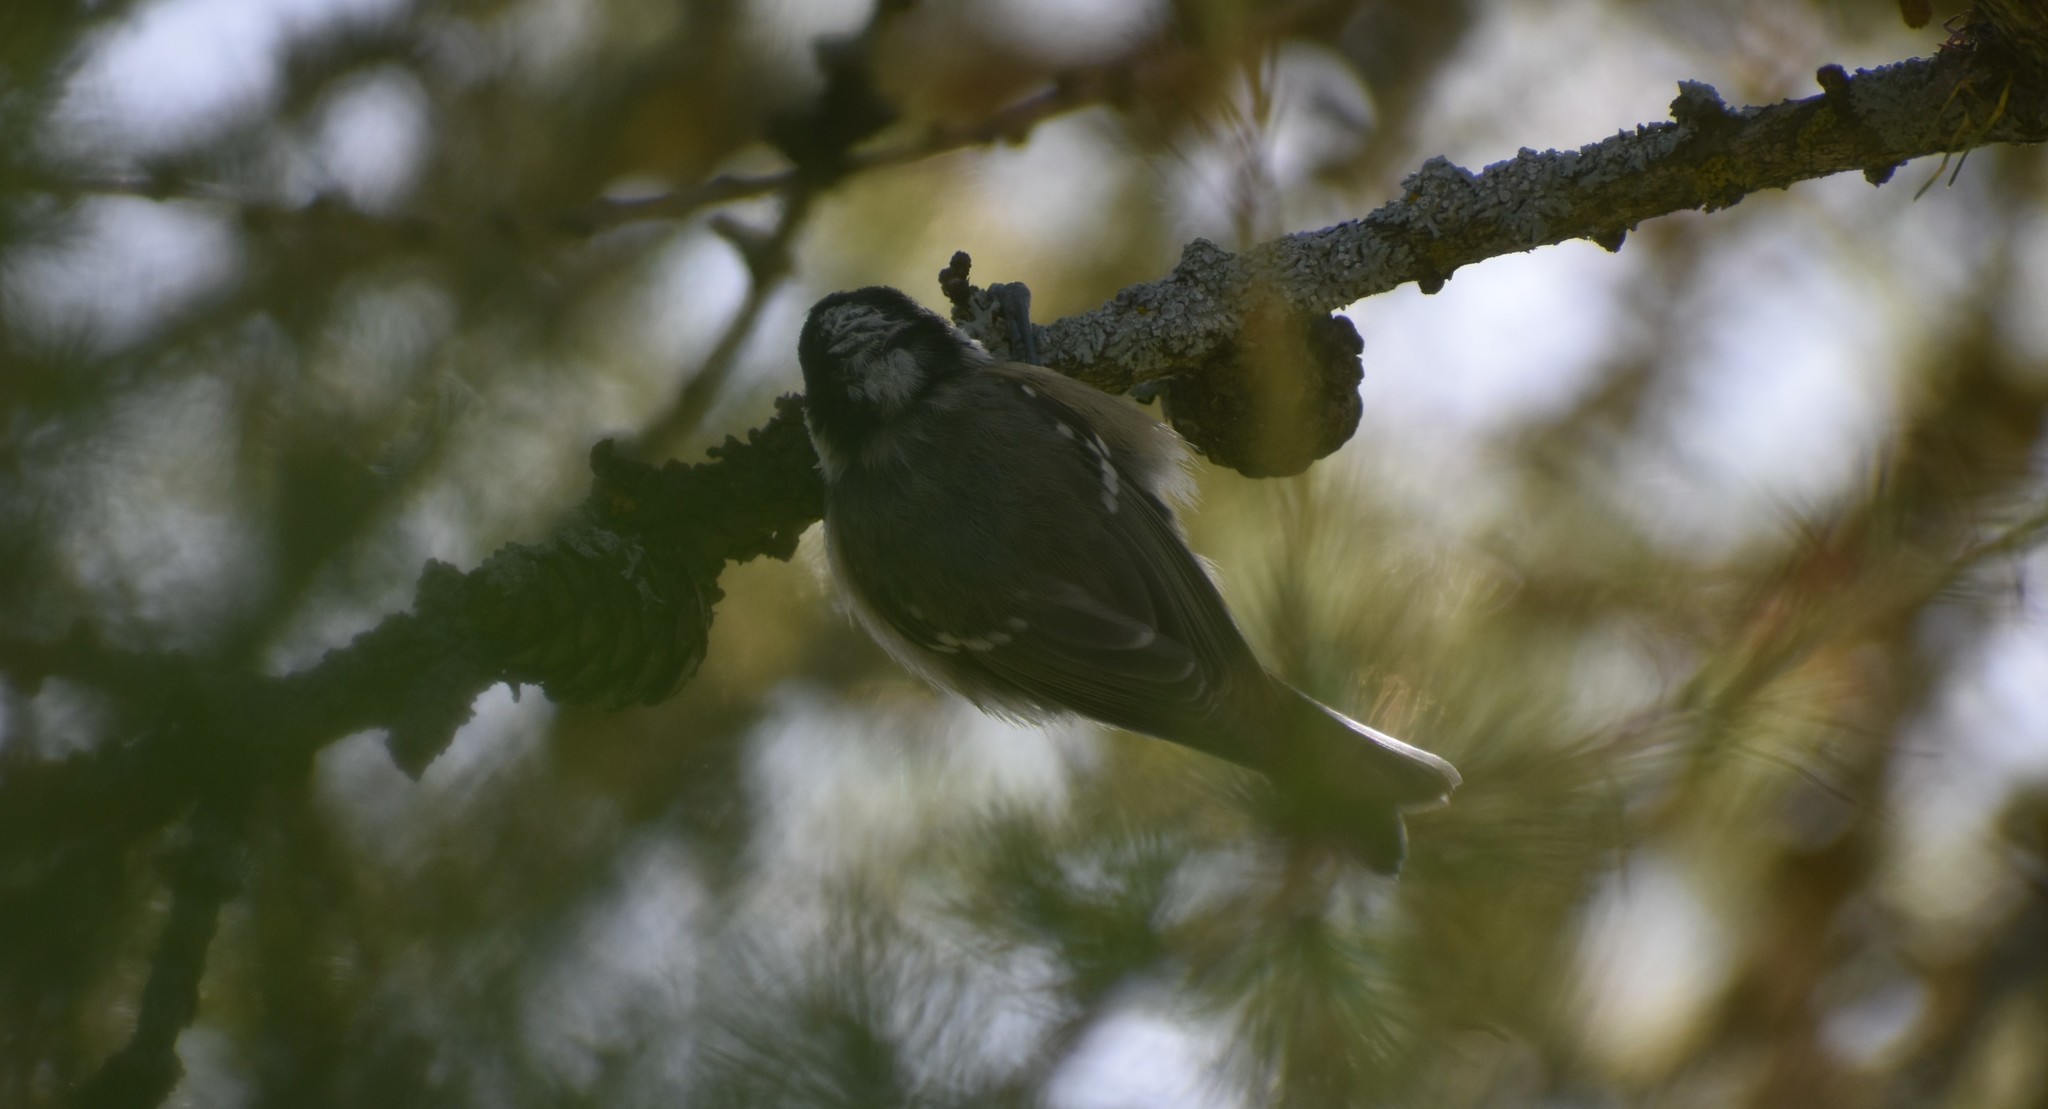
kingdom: Animalia
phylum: Chordata
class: Aves
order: Passeriformes
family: Paridae
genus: Periparus
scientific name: Periparus ater
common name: Coal tit
